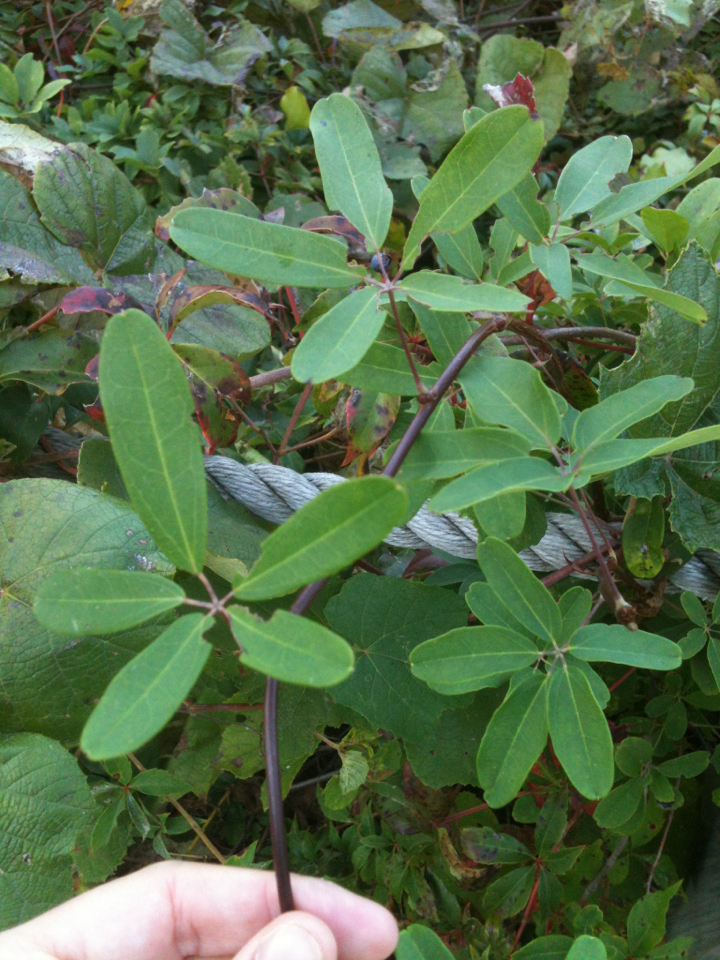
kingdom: Plantae
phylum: Tracheophyta
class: Magnoliopsida
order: Ranunculales
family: Lardizabalaceae
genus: Akebia
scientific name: Akebia quinata
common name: Five-leaf akebia
